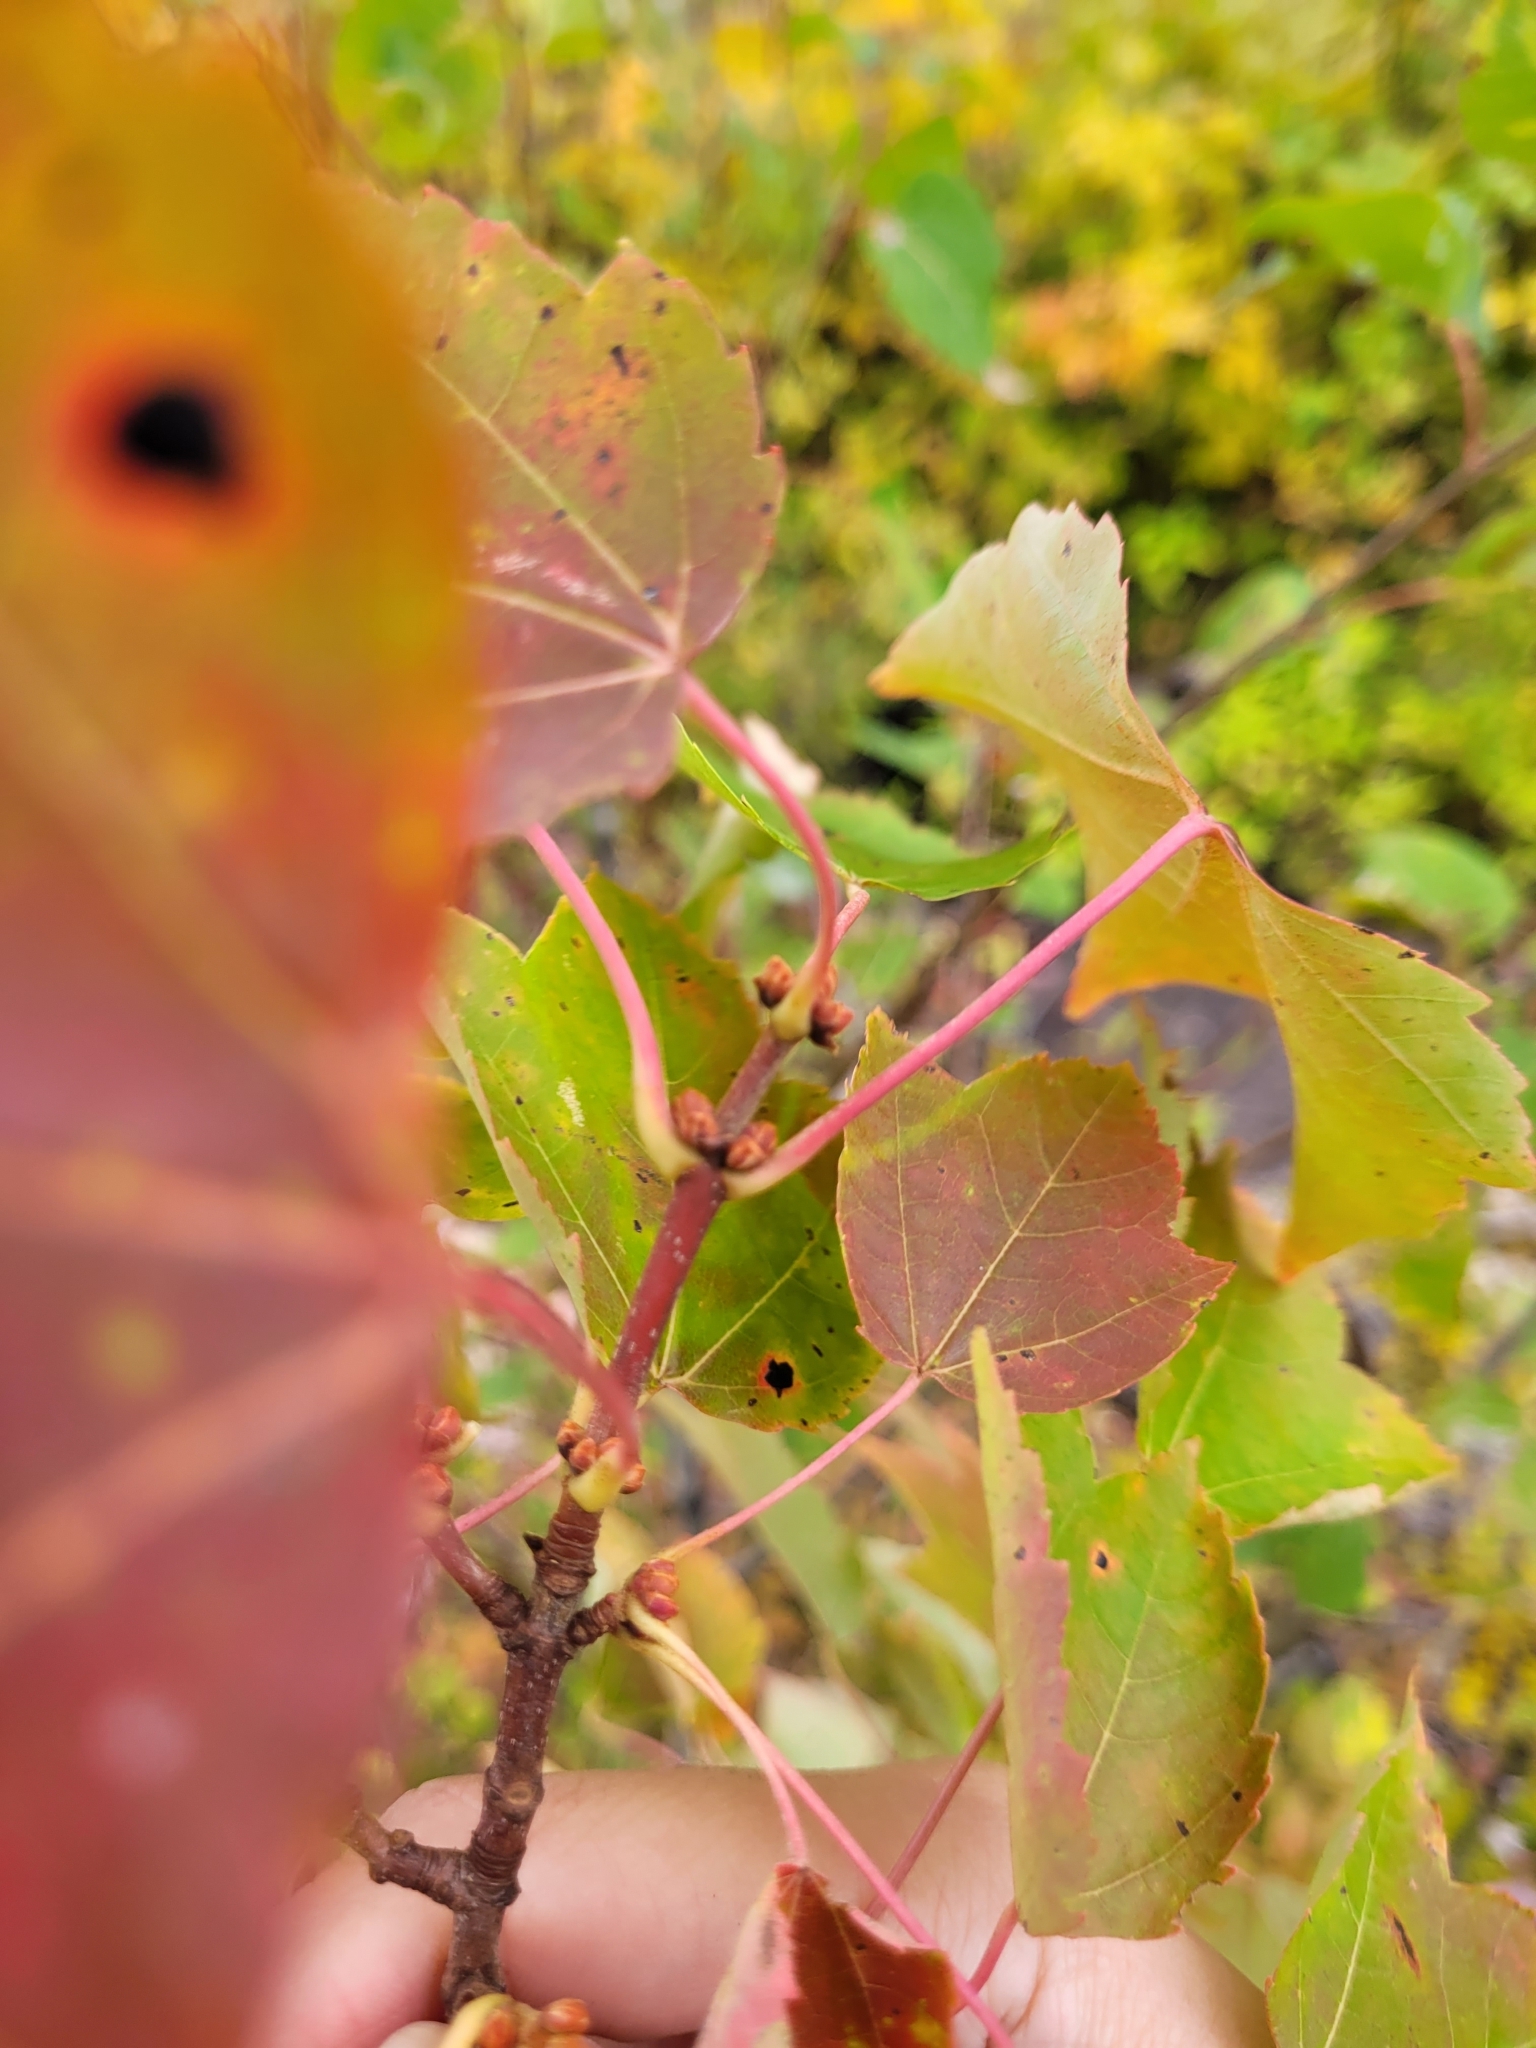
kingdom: Plantae
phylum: Tracheophyta
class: Magnoliopsida
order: Sapindales
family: Sapindaceae
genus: Acer
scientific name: Acer rubrum
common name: Red maple
